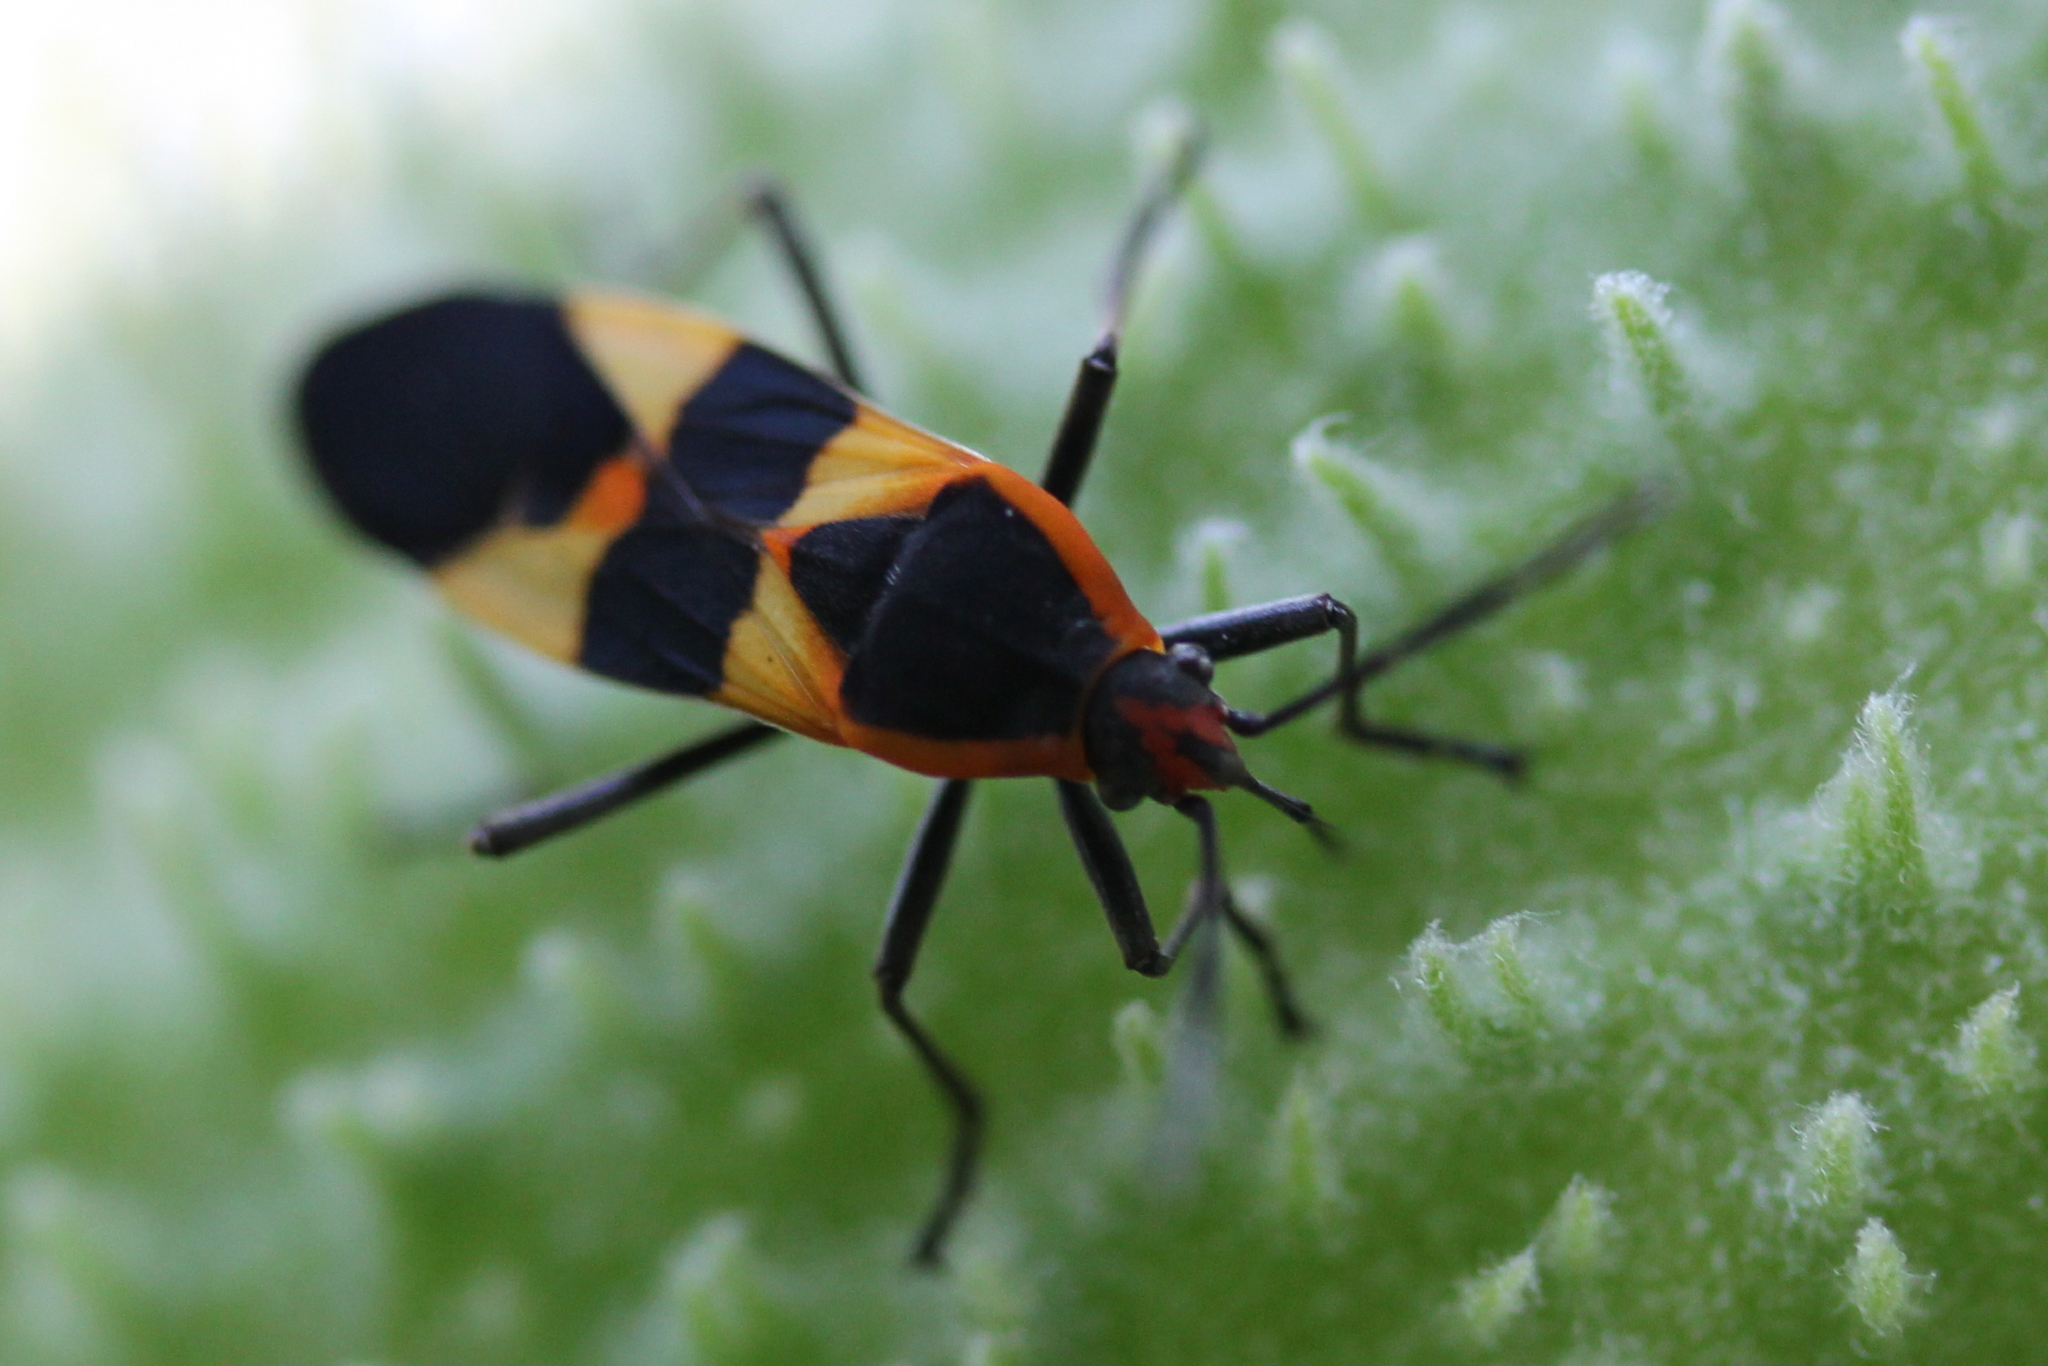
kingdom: Animalia
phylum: Arthropoda
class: Insecta
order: Hemiptera
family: Lygaeidae
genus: Oncopeltus
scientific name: Oncopeltus fasciatus
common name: Large milkweed bug
